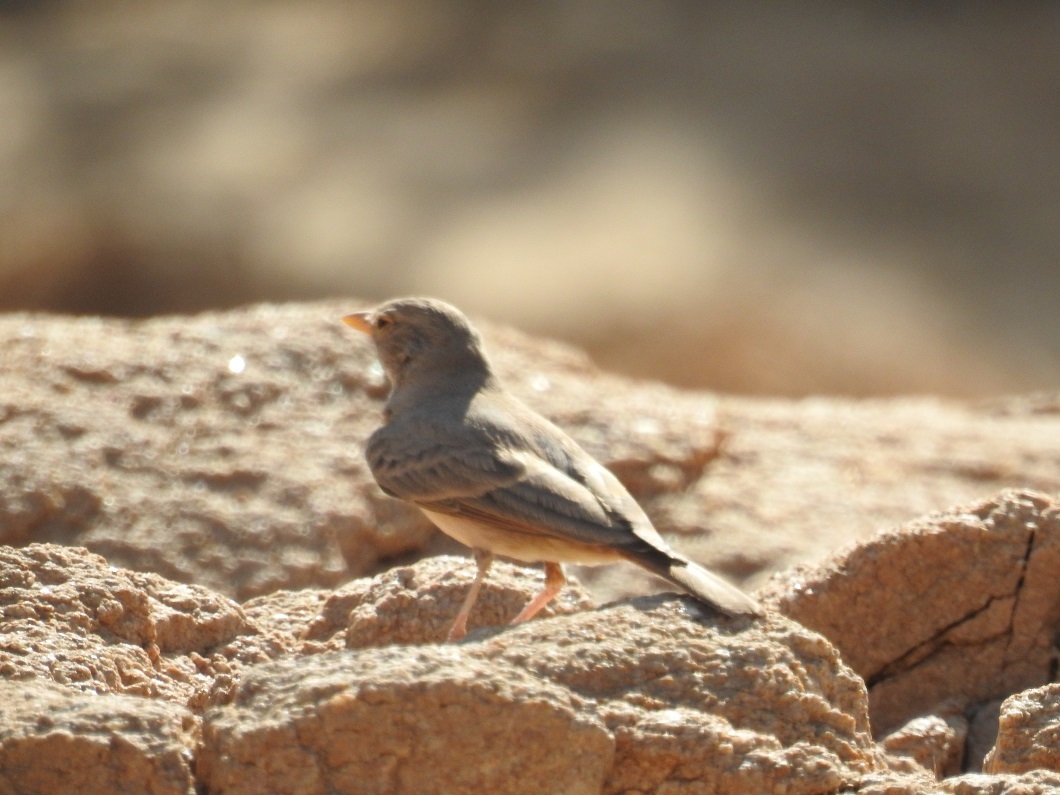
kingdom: Animalia
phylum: Chordata
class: Aves
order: Passeriformes
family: Alaudidae
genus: Ammomanes
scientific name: Ammomanes deserti
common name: Desert lark
